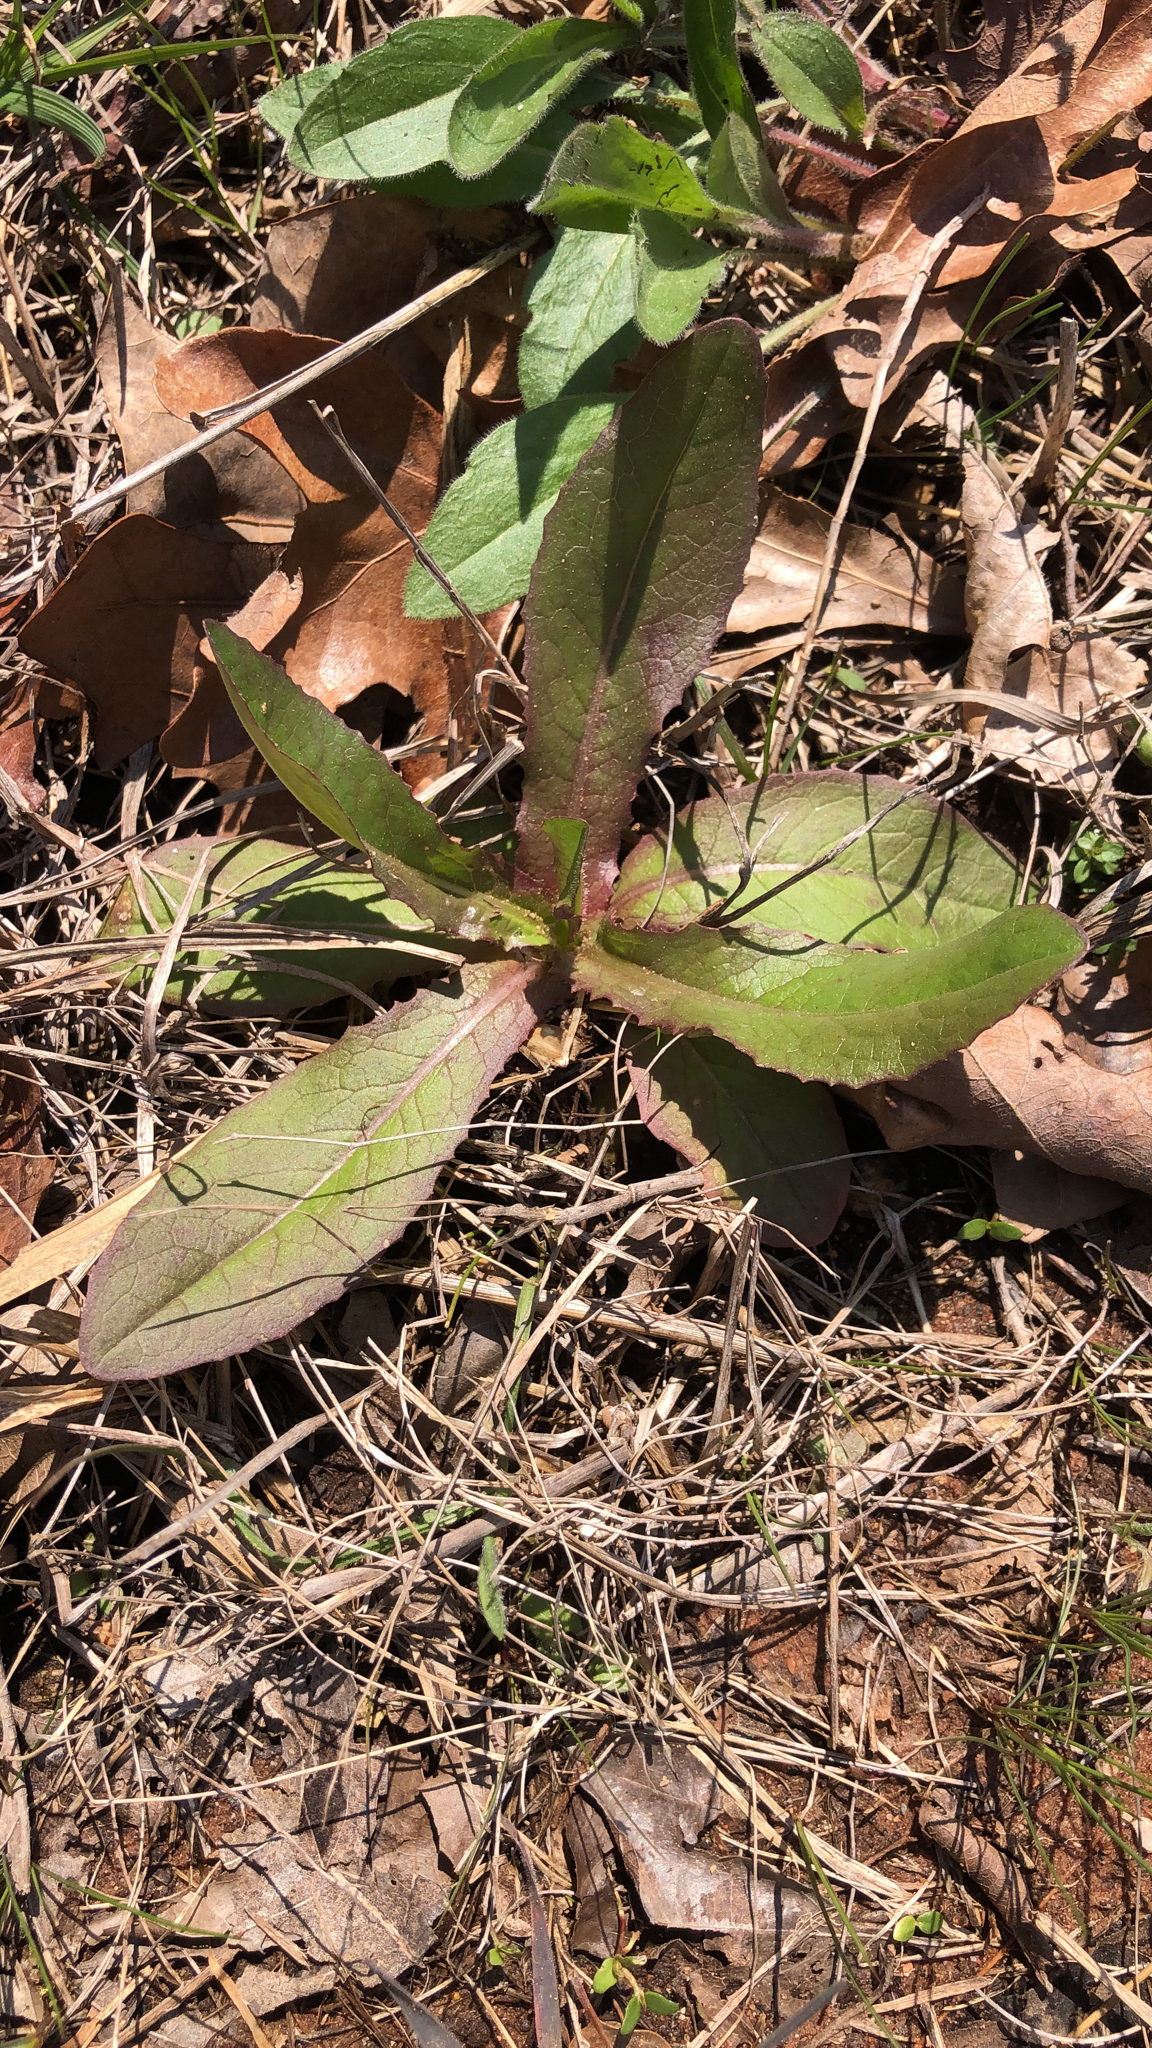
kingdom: Plantae
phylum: Tracheophyta
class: Magnoliopsida
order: Asterales
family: Asteraceae
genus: Lactuca
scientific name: Lactuca serriola
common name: Prickly lettuce
